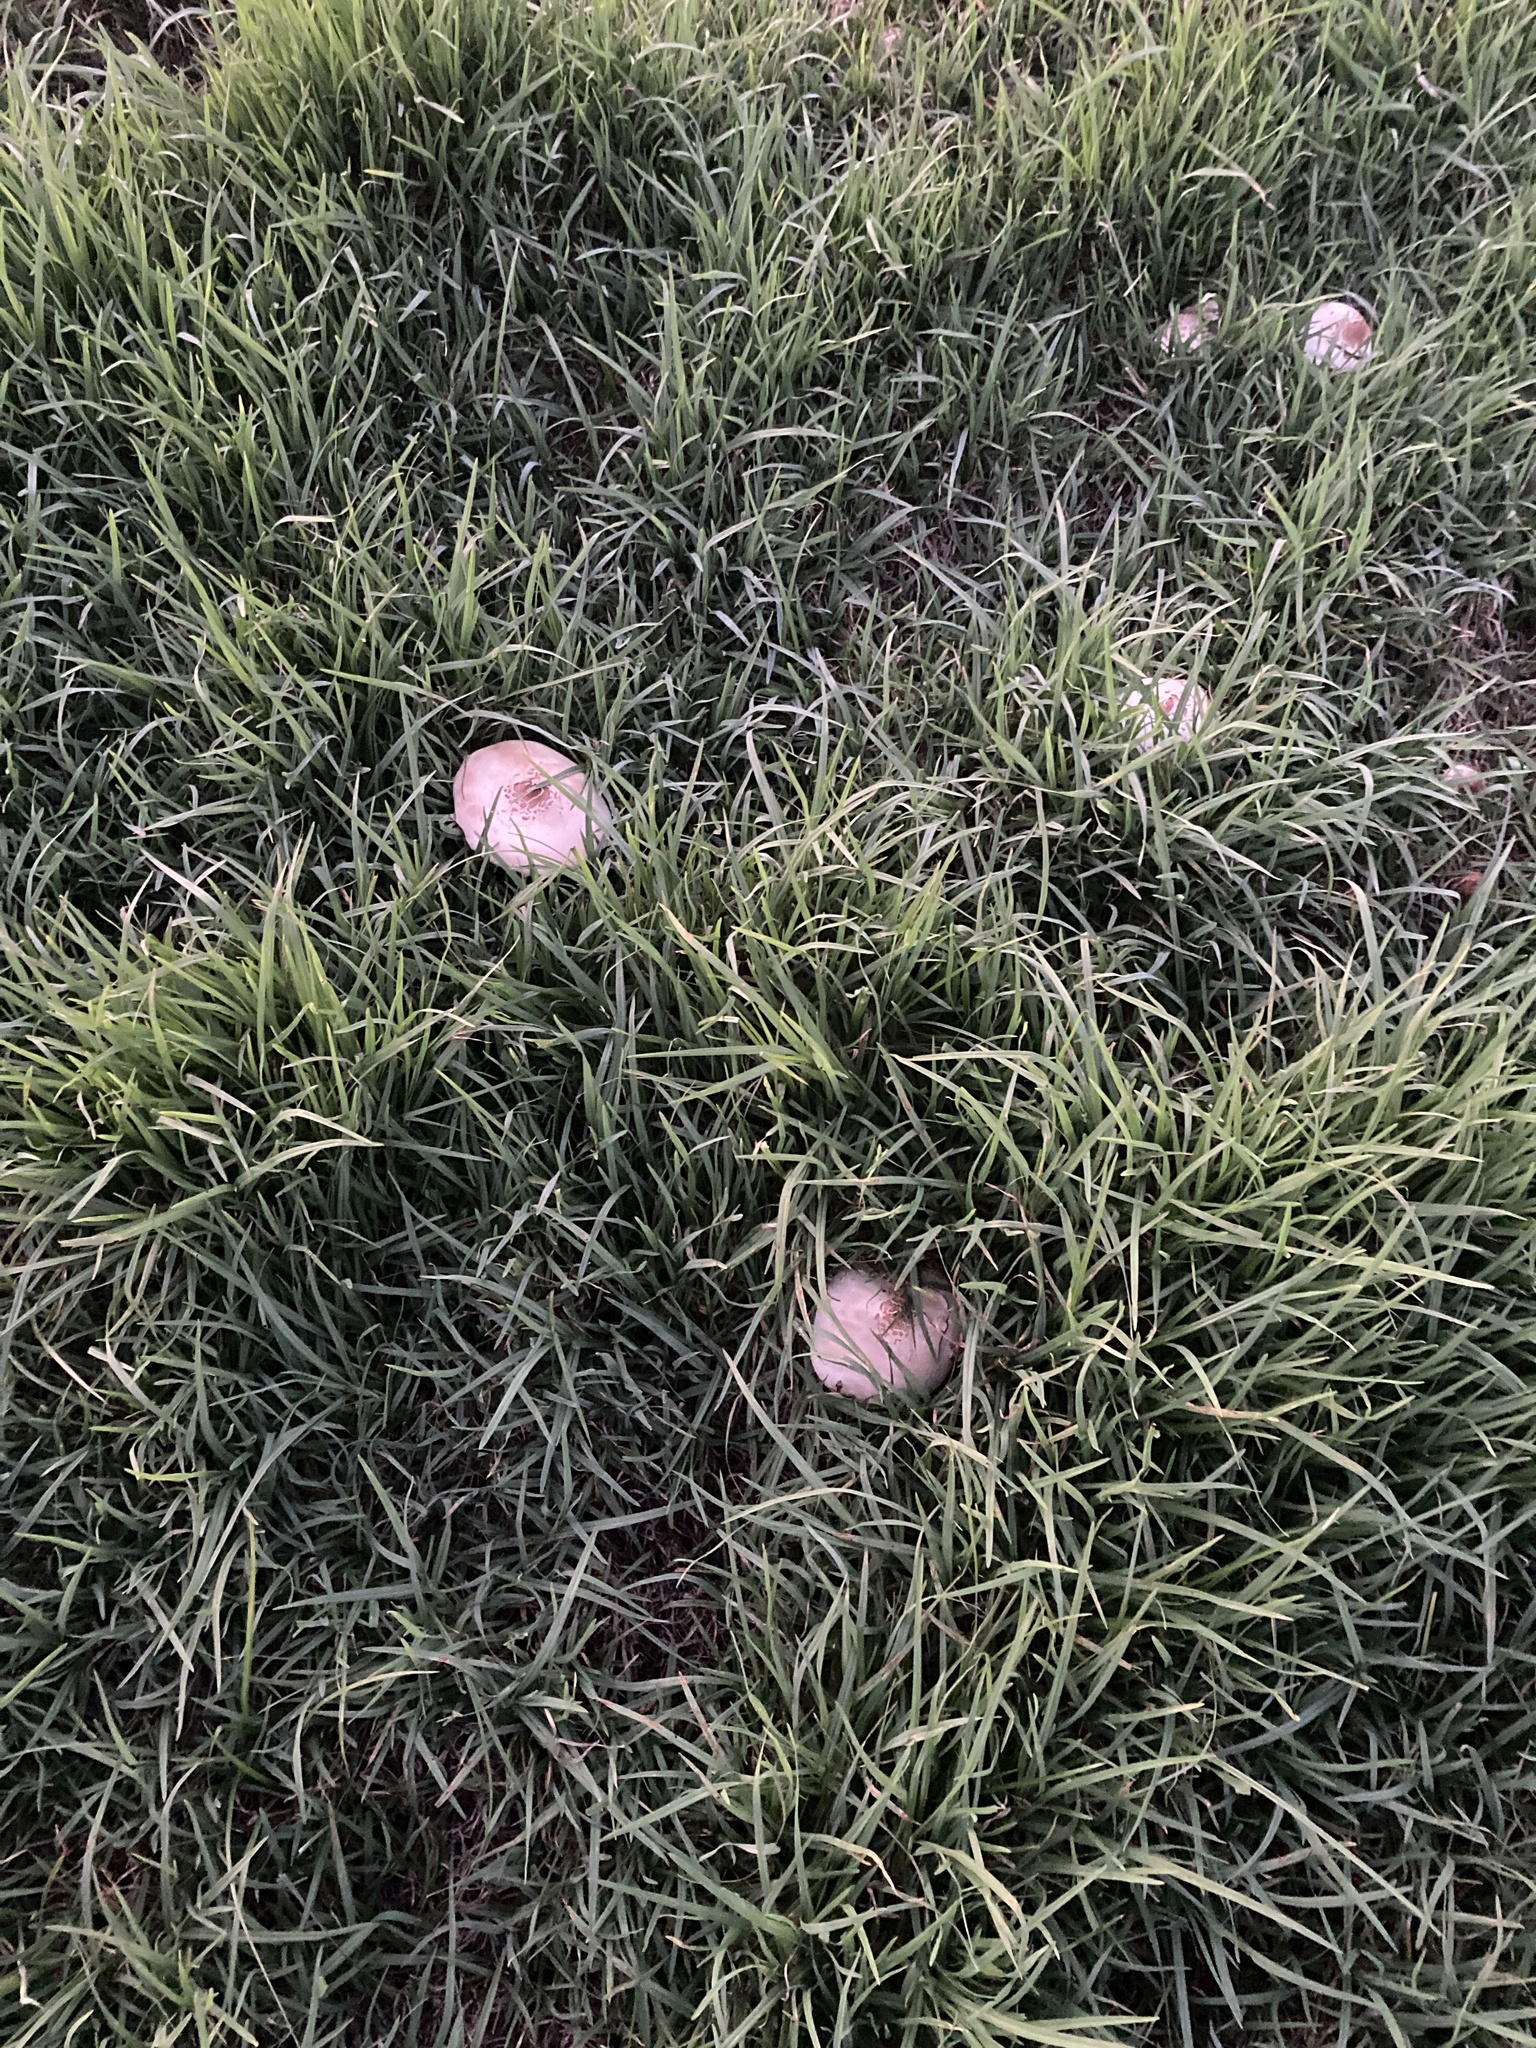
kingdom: Fungi
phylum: Basidiomycota
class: Agaricomycetes
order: Agaricales
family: Agaricaceae
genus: Chlorophyllum
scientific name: Chlorophyllum molybdites
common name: False parasol
